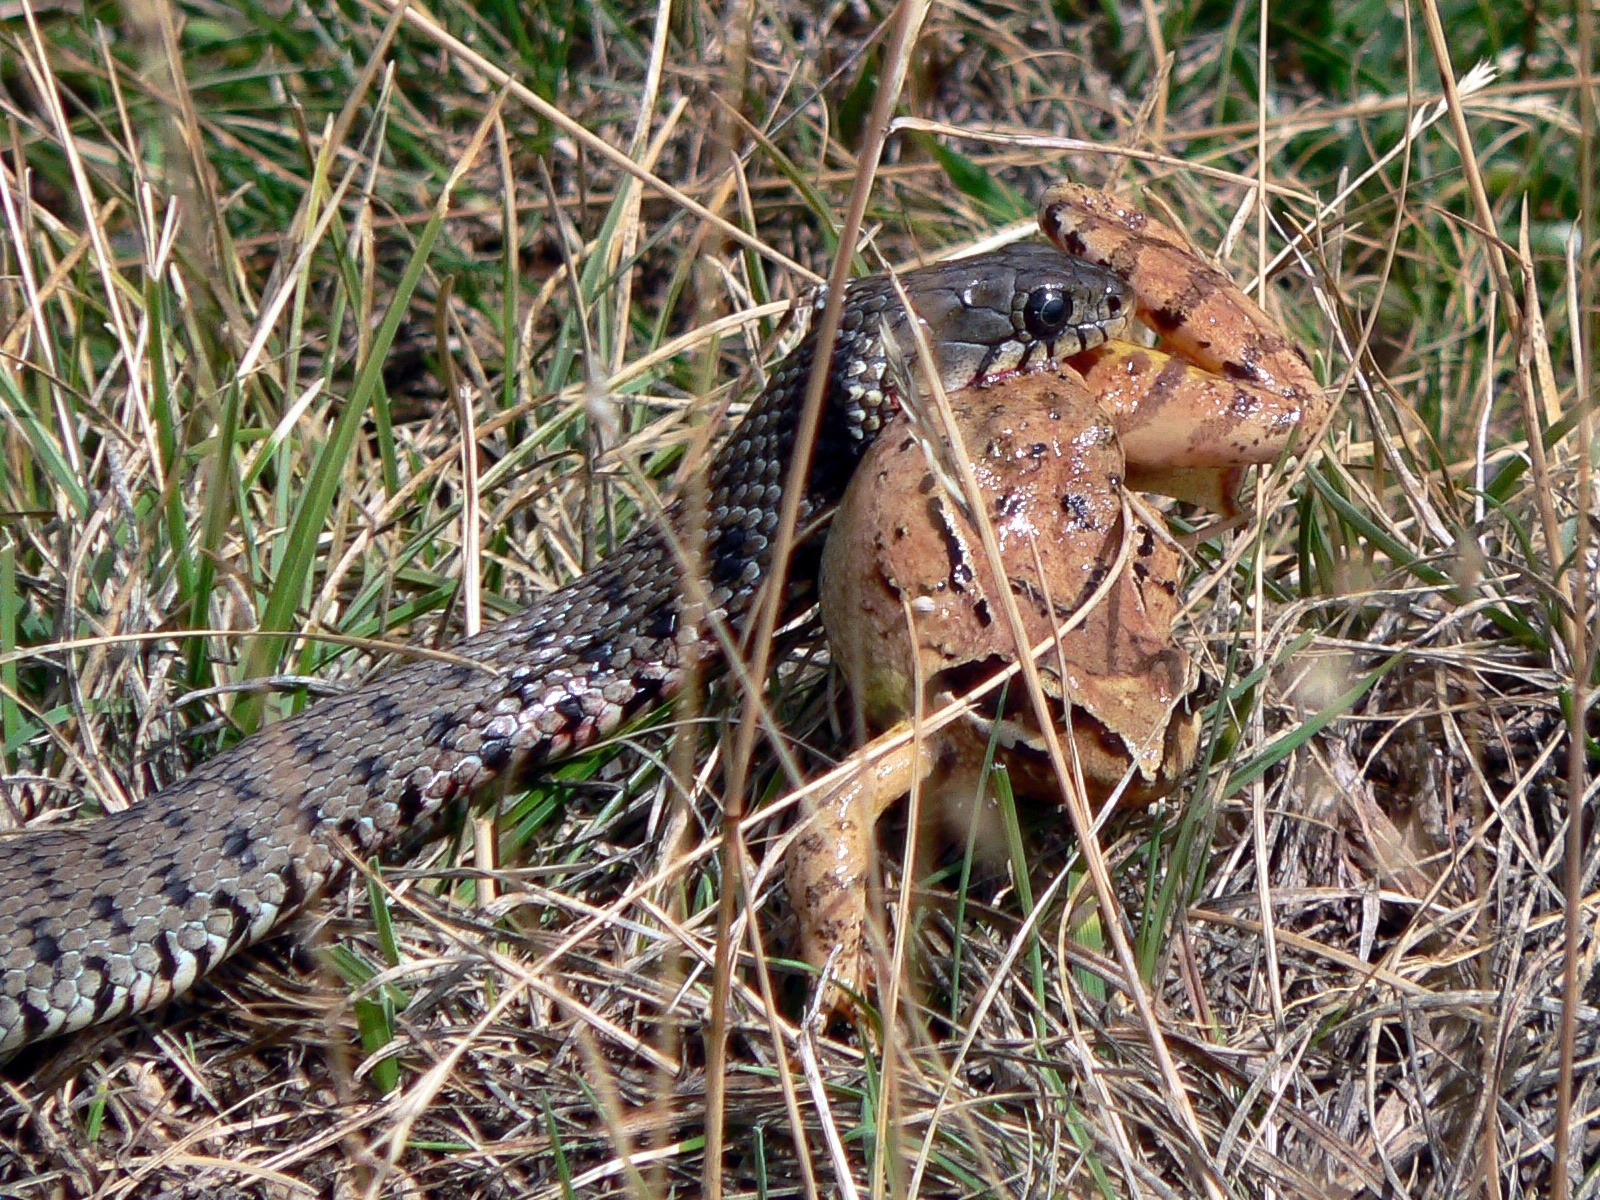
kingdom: Animalia
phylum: Chordata
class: Squamata
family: Colubridae
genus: Natrix
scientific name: Natrix helvetica
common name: Banded grass snake
